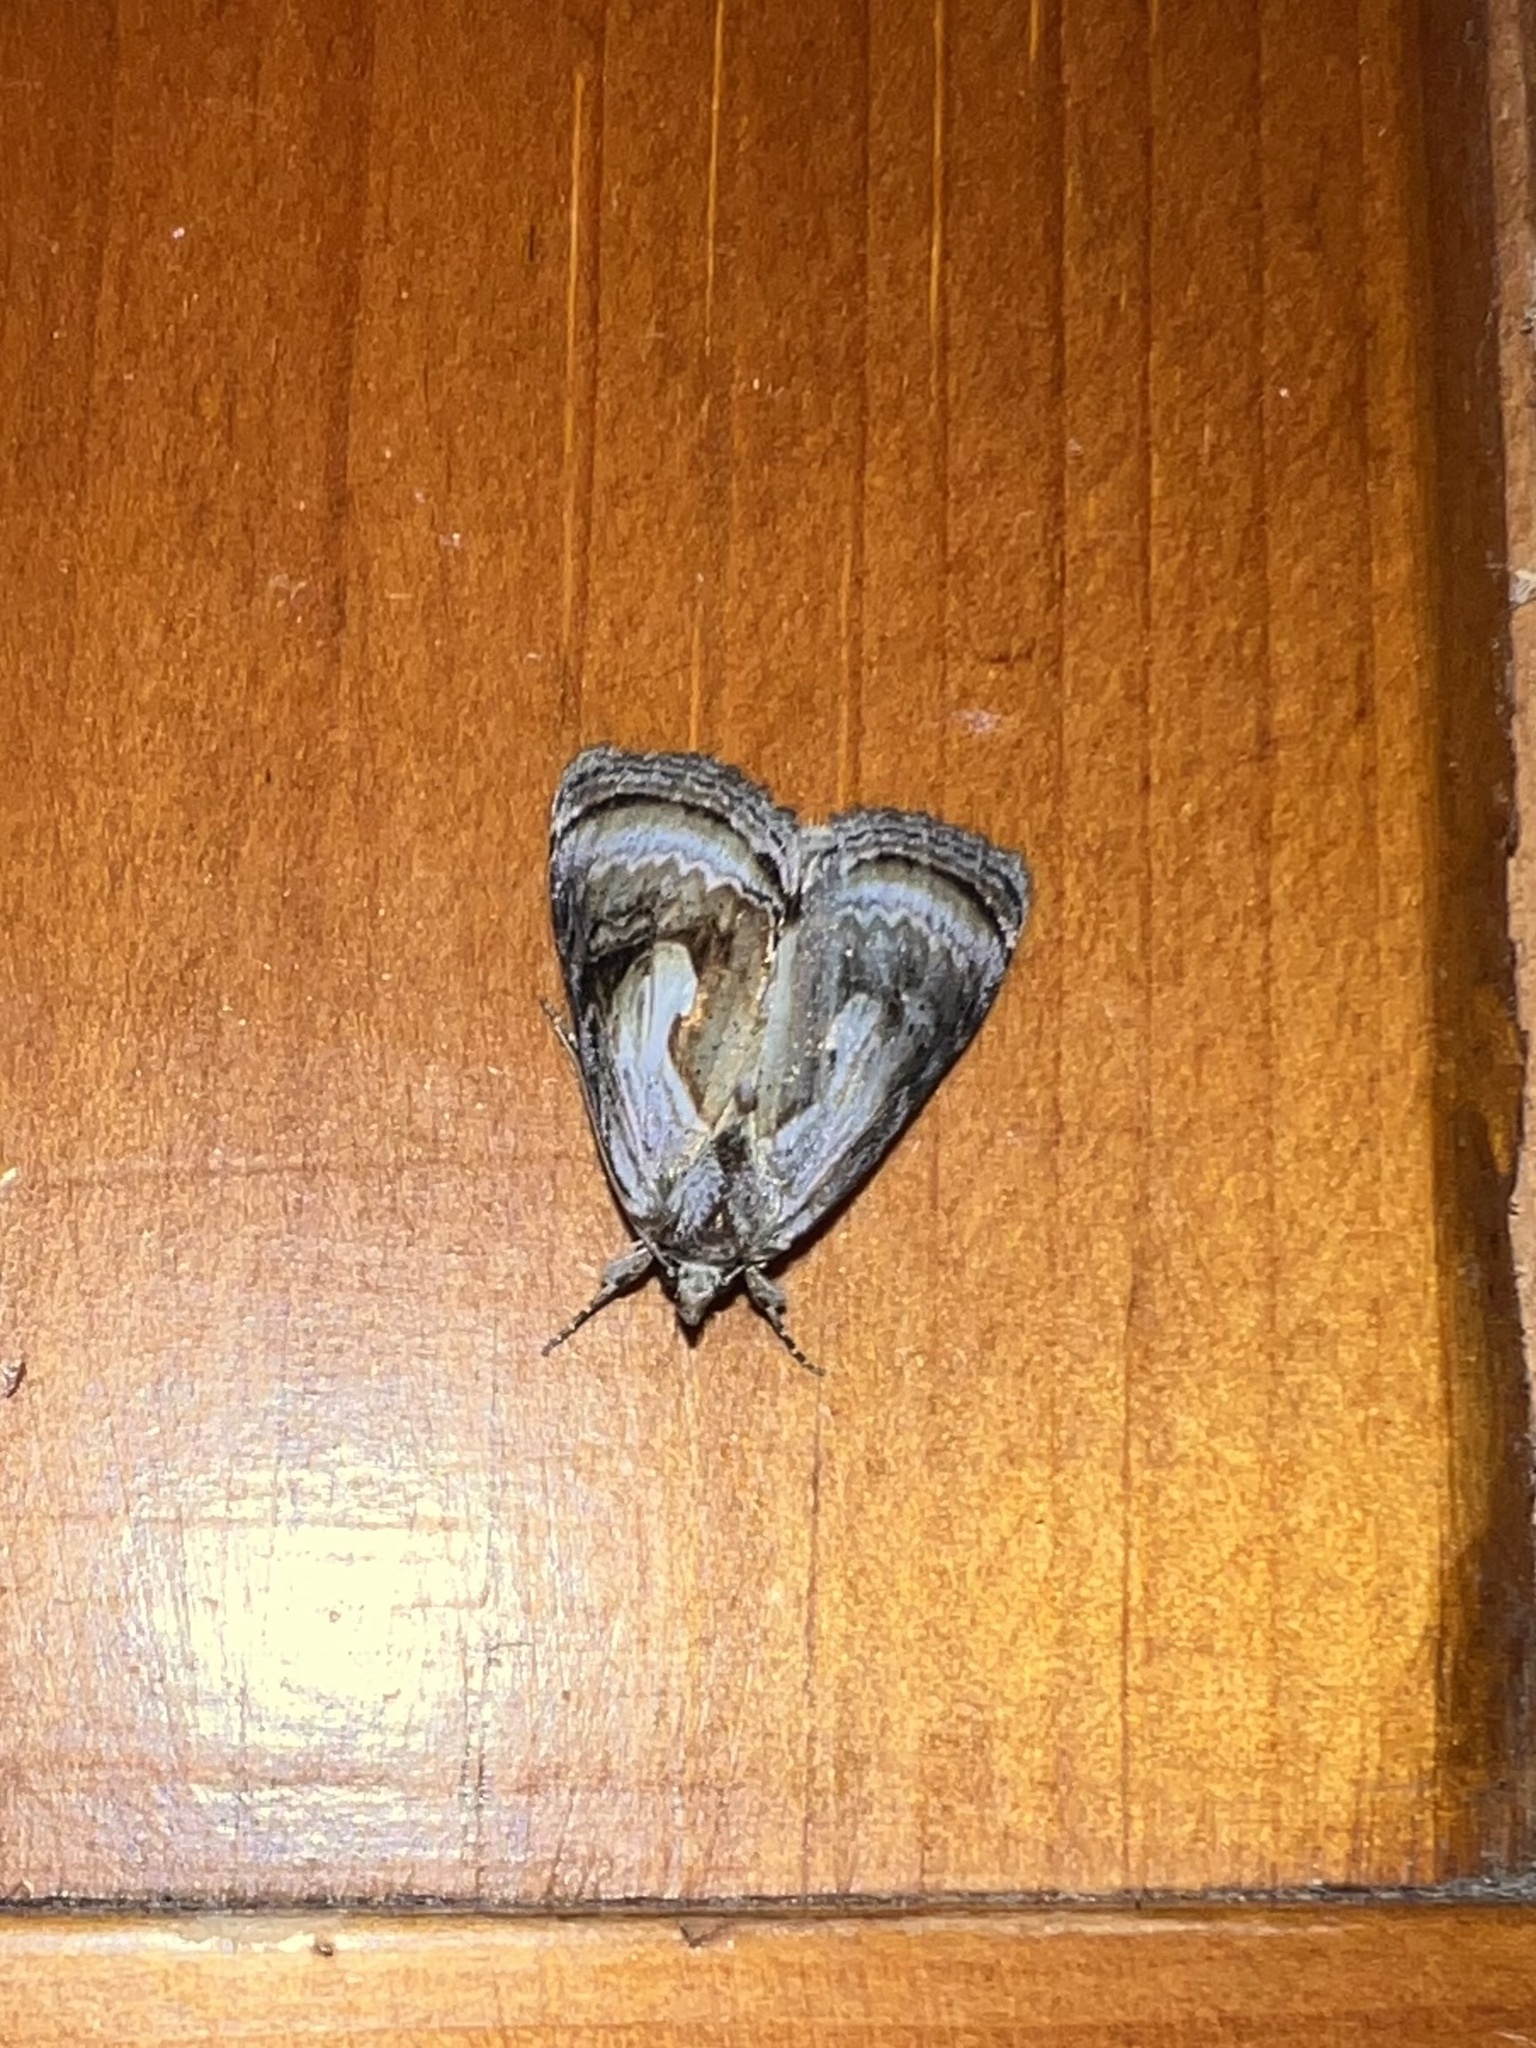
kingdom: Animalia
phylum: Arthropoda
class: Insecta
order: Lepidoptera
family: Noctuidae
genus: Chrysanympha
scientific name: Chrysanympha formosa
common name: Formosa looper moth
